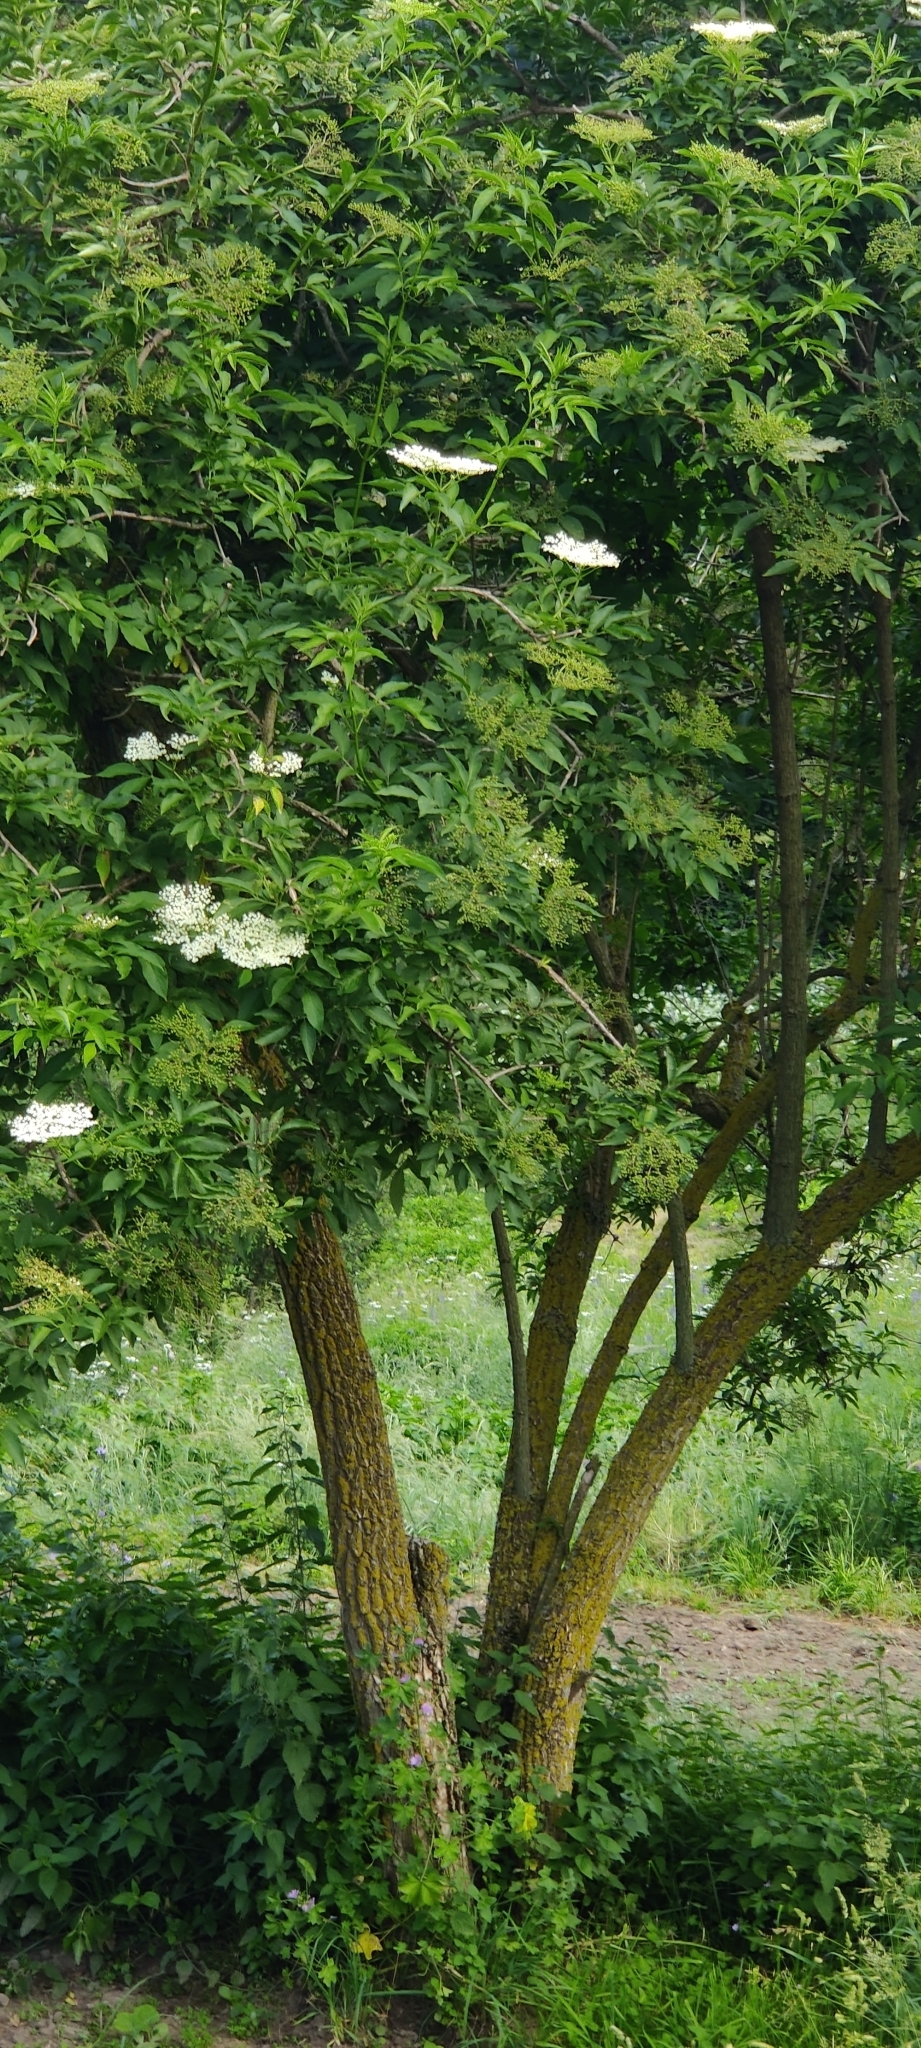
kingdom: Plantae
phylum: Tracheophyta
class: Magnoliopsida
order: Dipsacales
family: Viburnaceae
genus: Sambucus
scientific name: Sambucus nigra
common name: Elder
